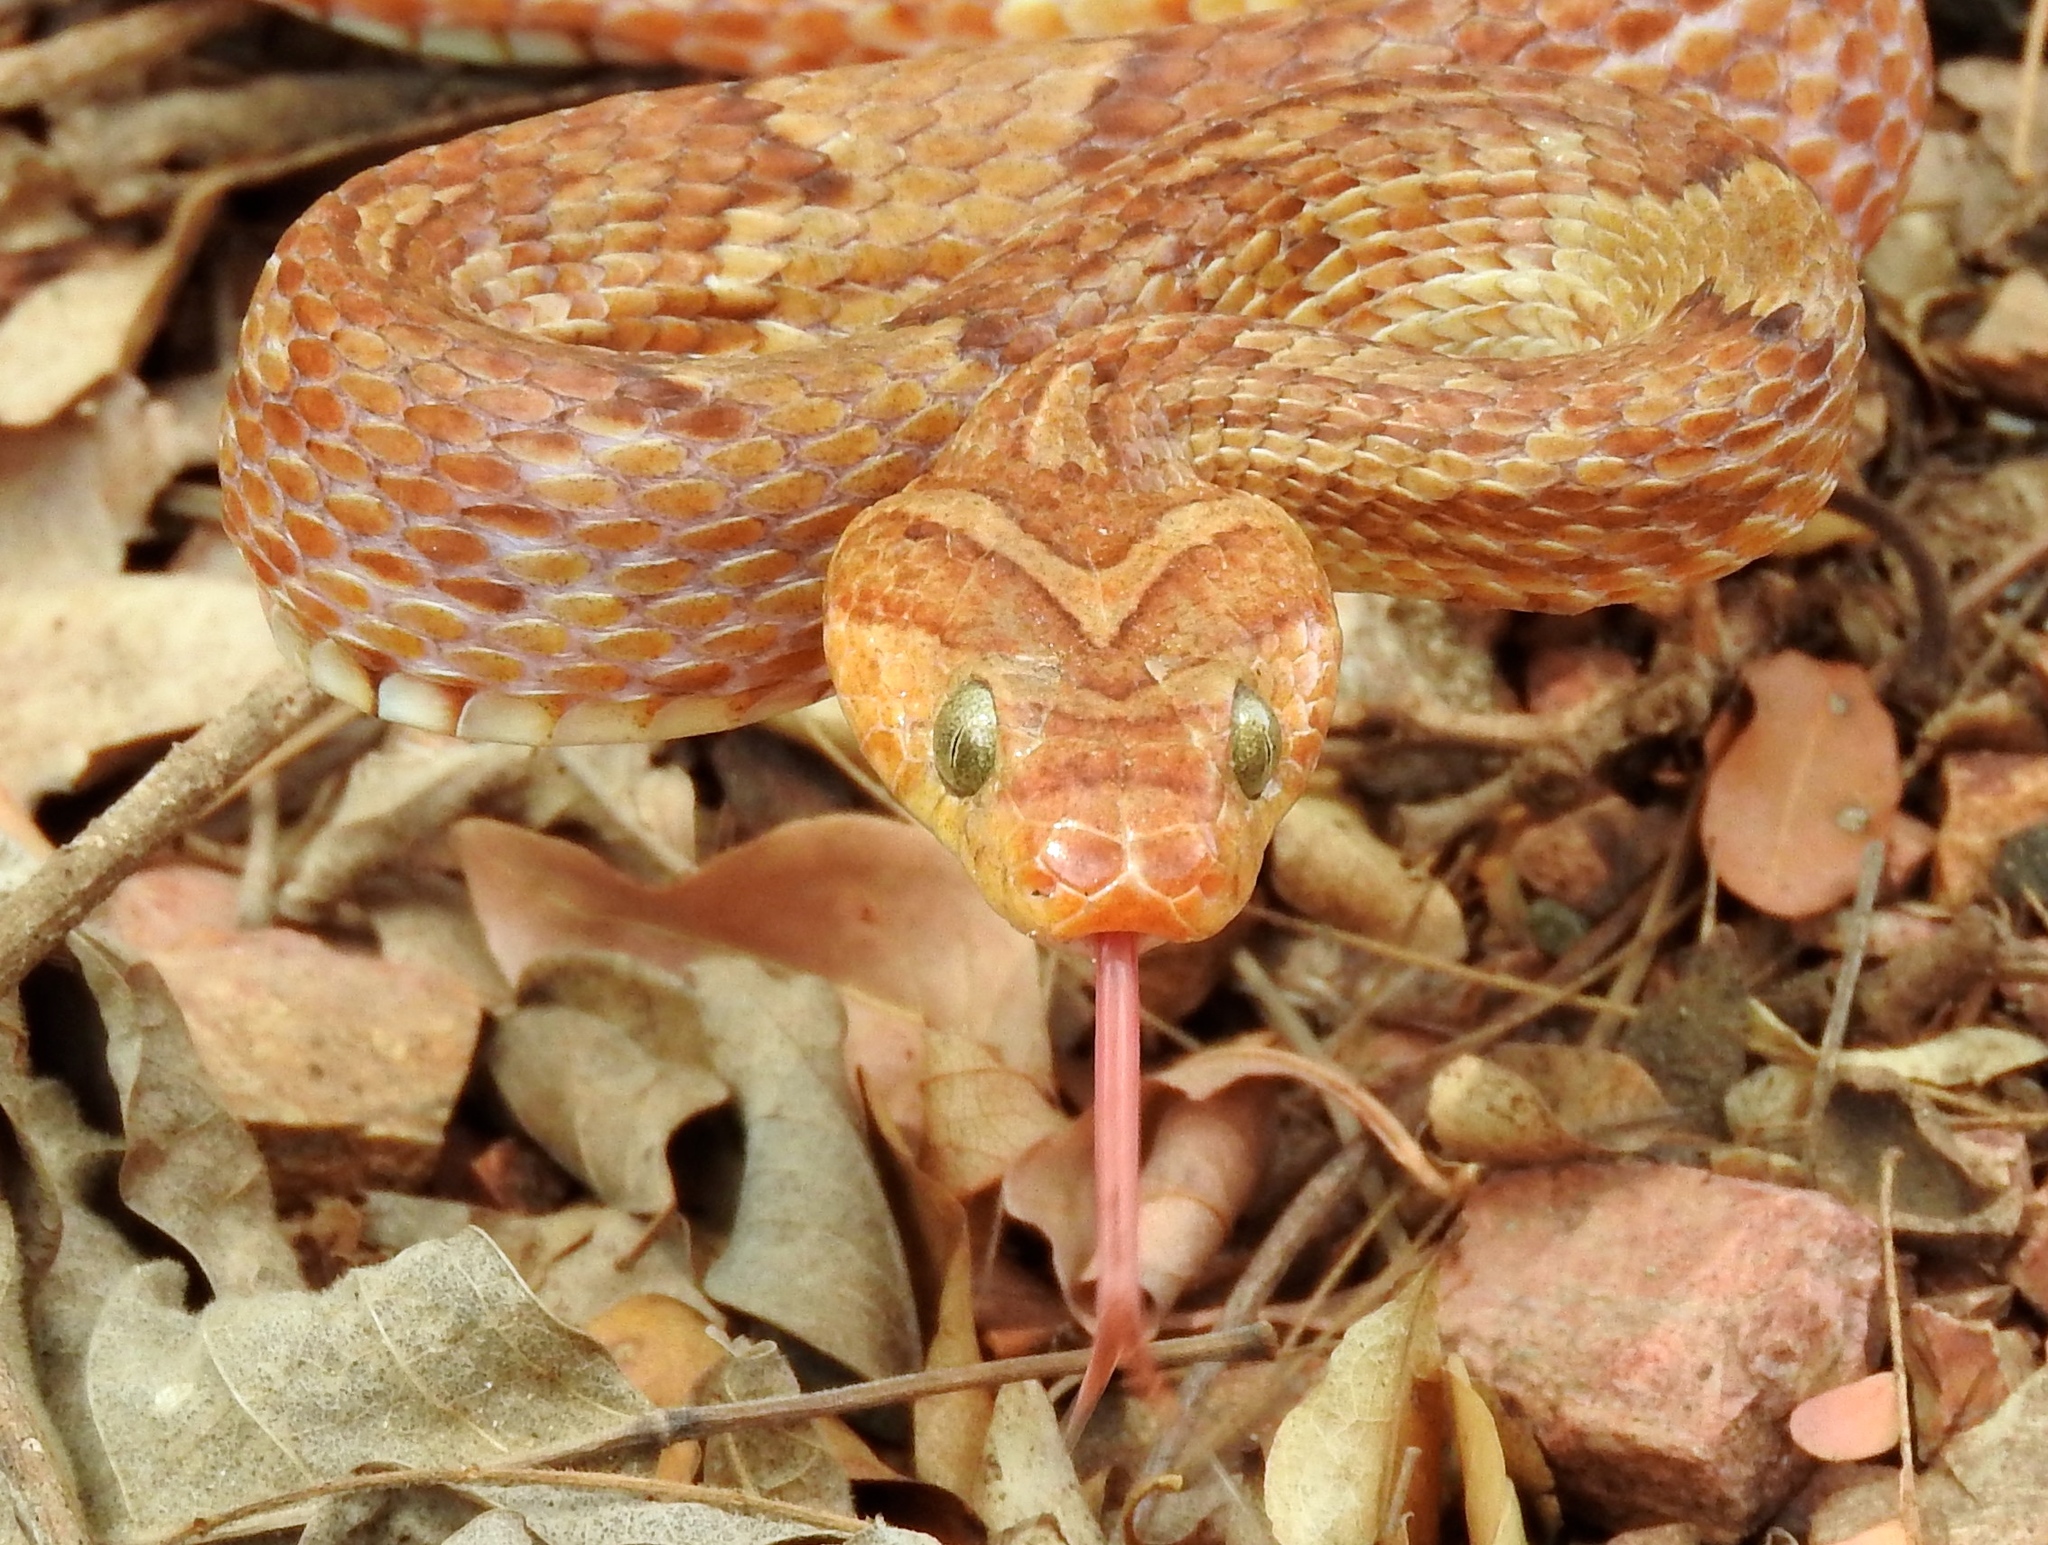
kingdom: Animalia
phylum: Chordata
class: Squamata
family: Colubridae
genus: Trimorphodon
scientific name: Trimorphodon paucimaculatus
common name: Sinaloan lyresnake
